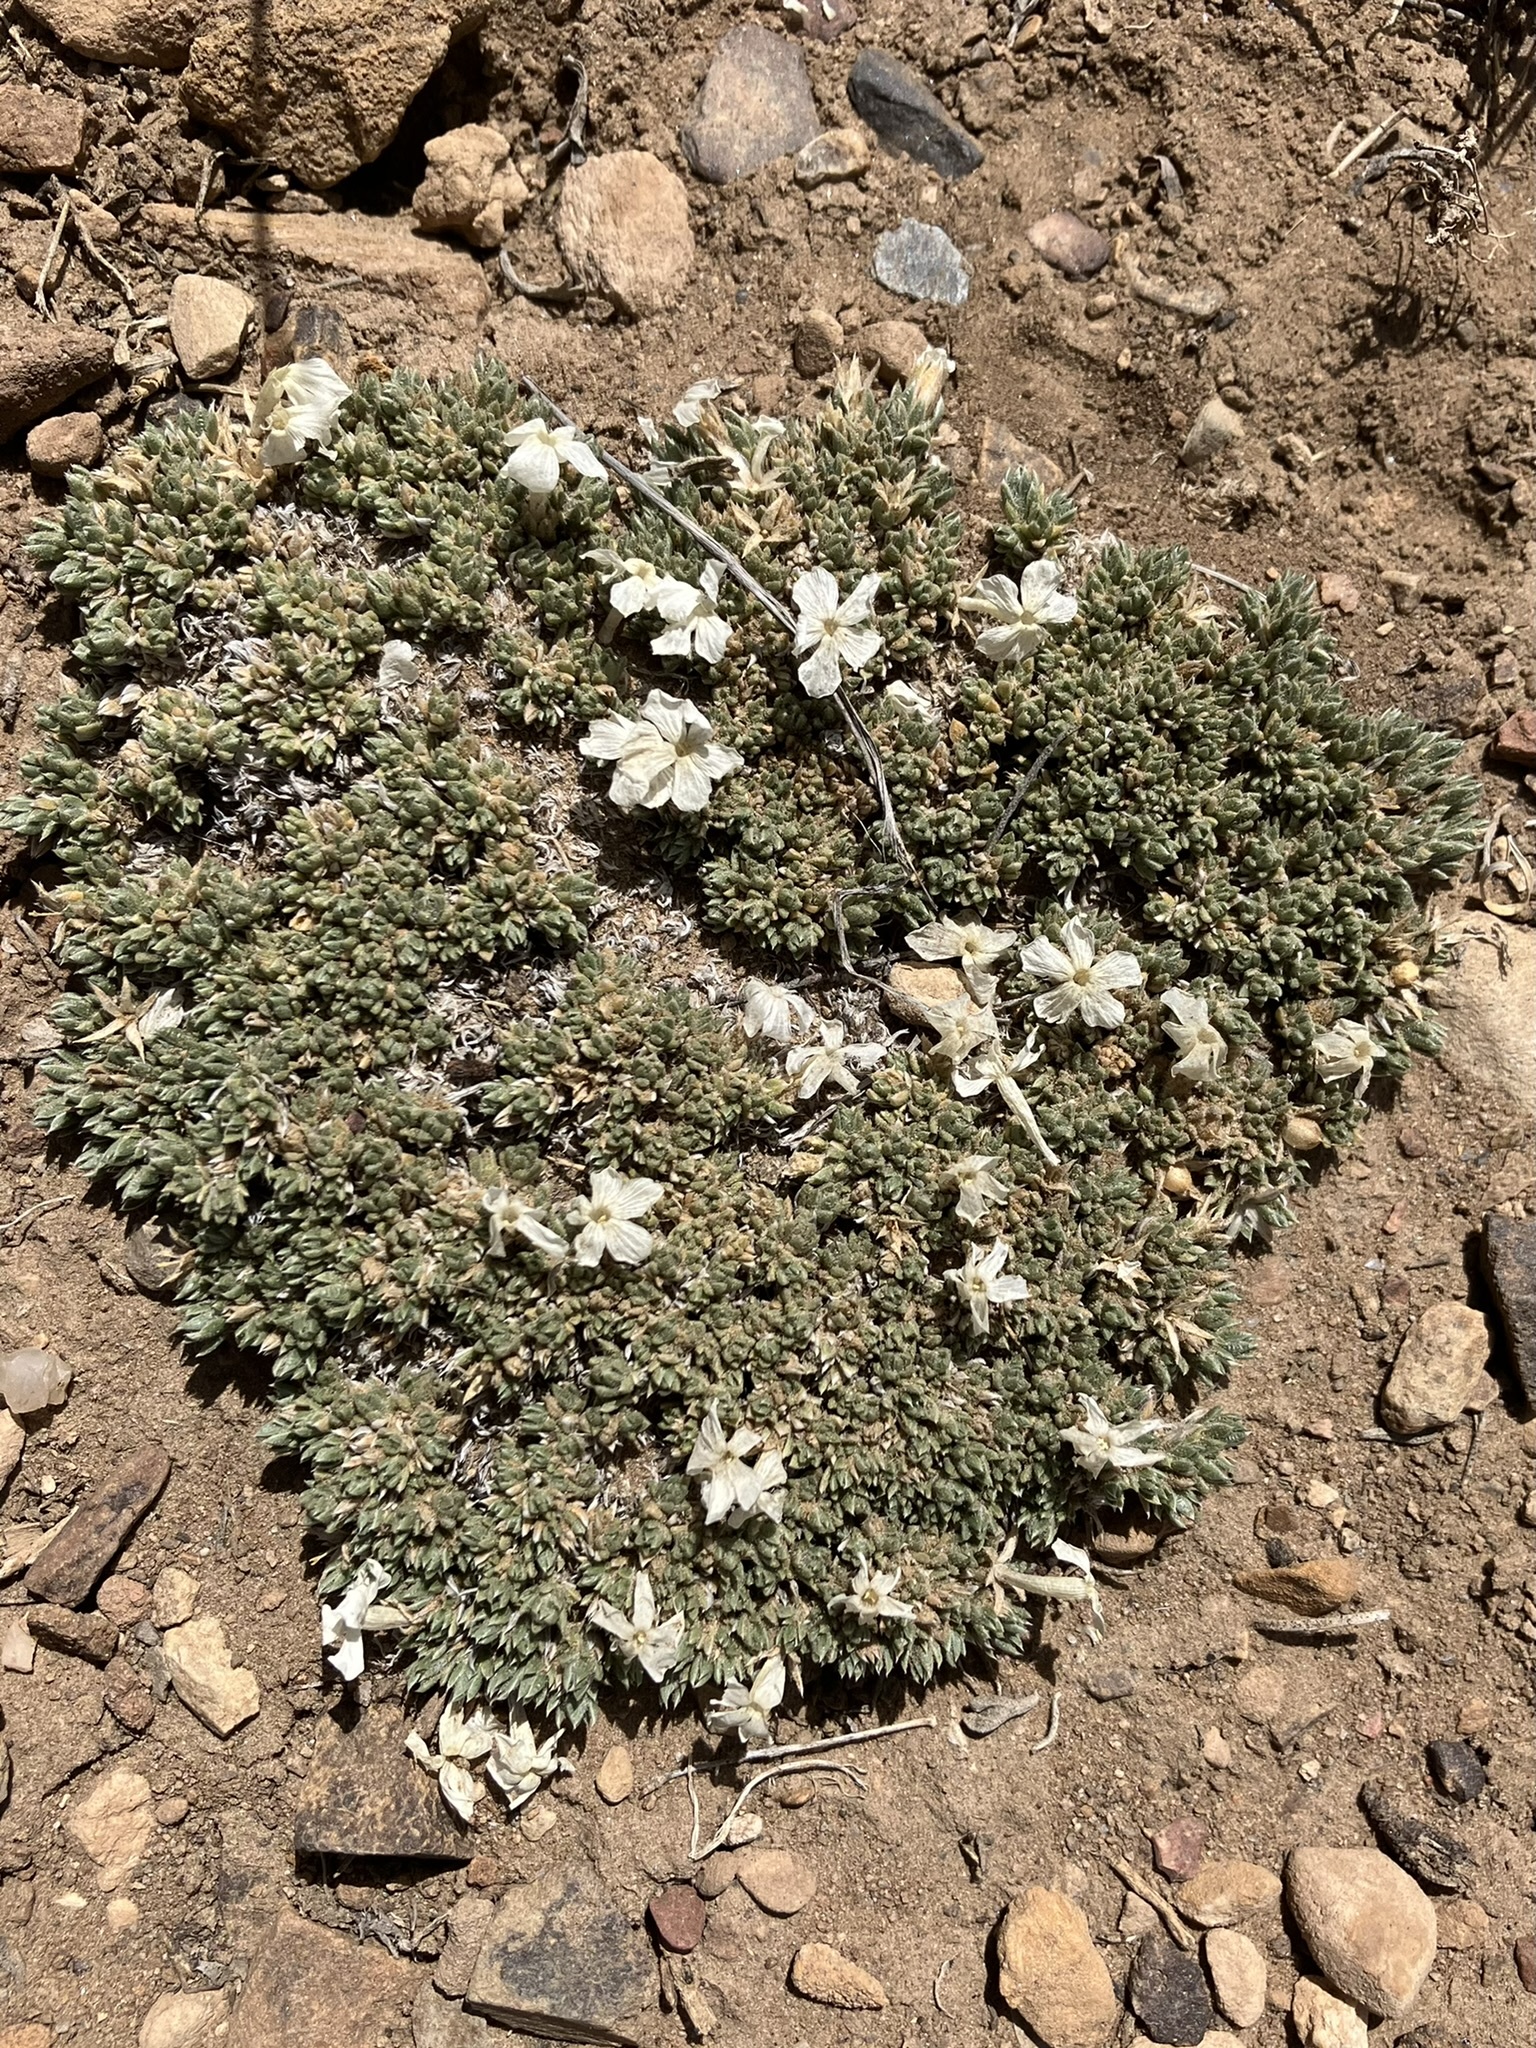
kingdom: Plantae
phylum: Tracheophyta
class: Magnoliopsida
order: Ericales
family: Polemoniaceae
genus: Phlox
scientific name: Phlox condensata
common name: Compact phlox
